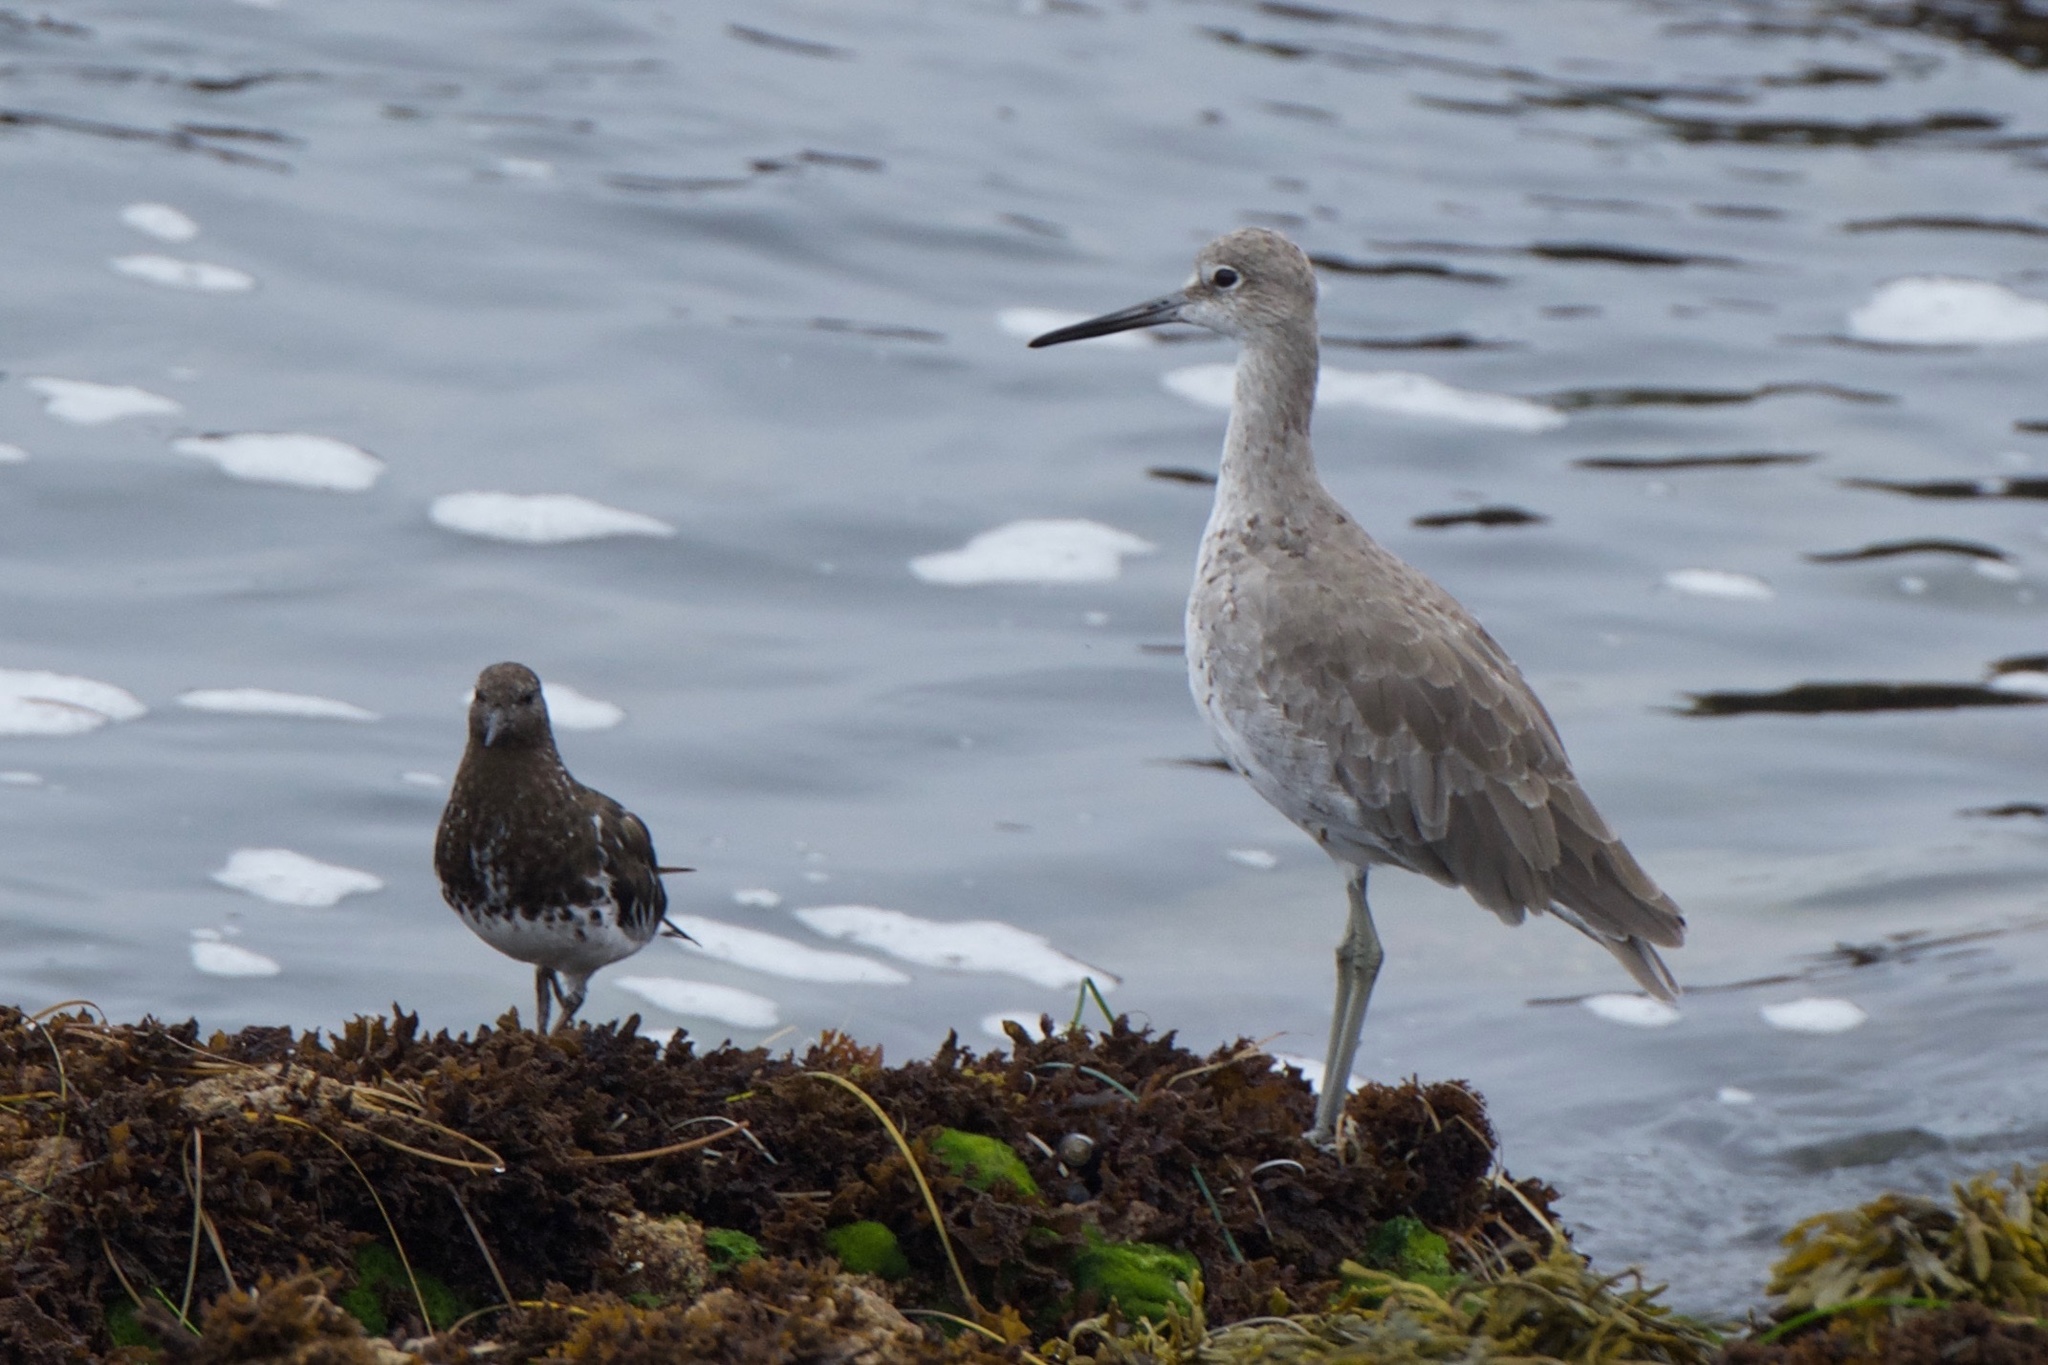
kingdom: Animalia
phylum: Chordata
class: Aves
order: Charadriiformes
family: Scolopacidae
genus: Tringa
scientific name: Tringa semipalmata
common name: Willet
